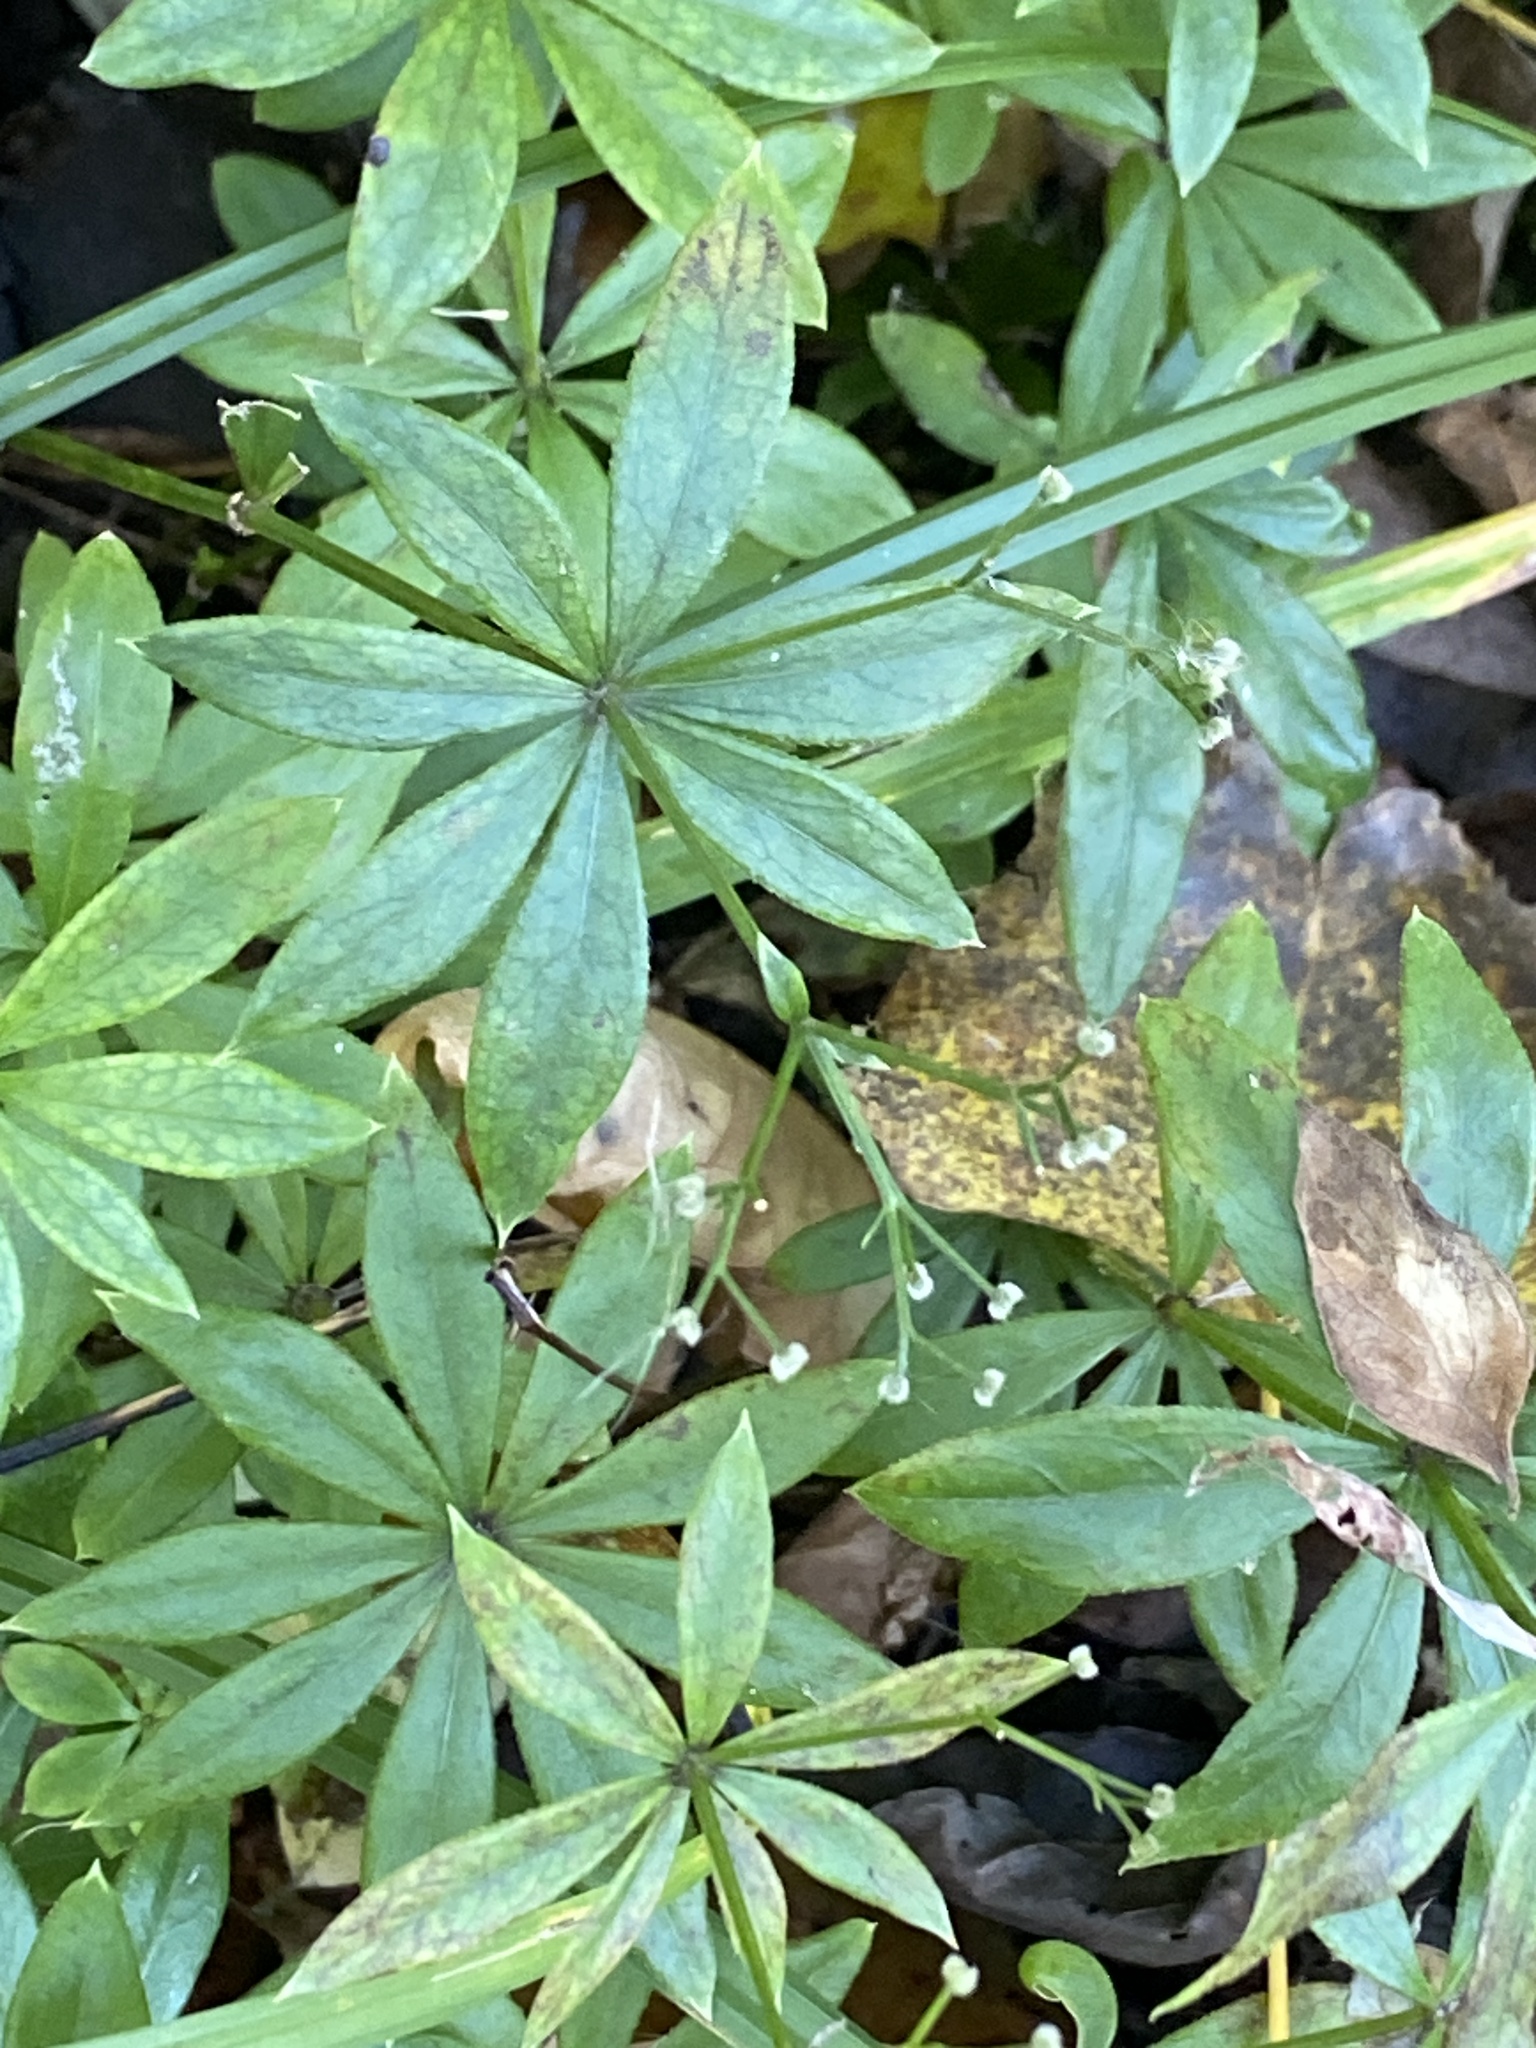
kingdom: Plantae
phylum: Tracheophyta
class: Magnoliopsida
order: Gentianales
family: Rubiaceae
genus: Galium
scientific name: Galium odoratum
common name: Sweet woodruff
